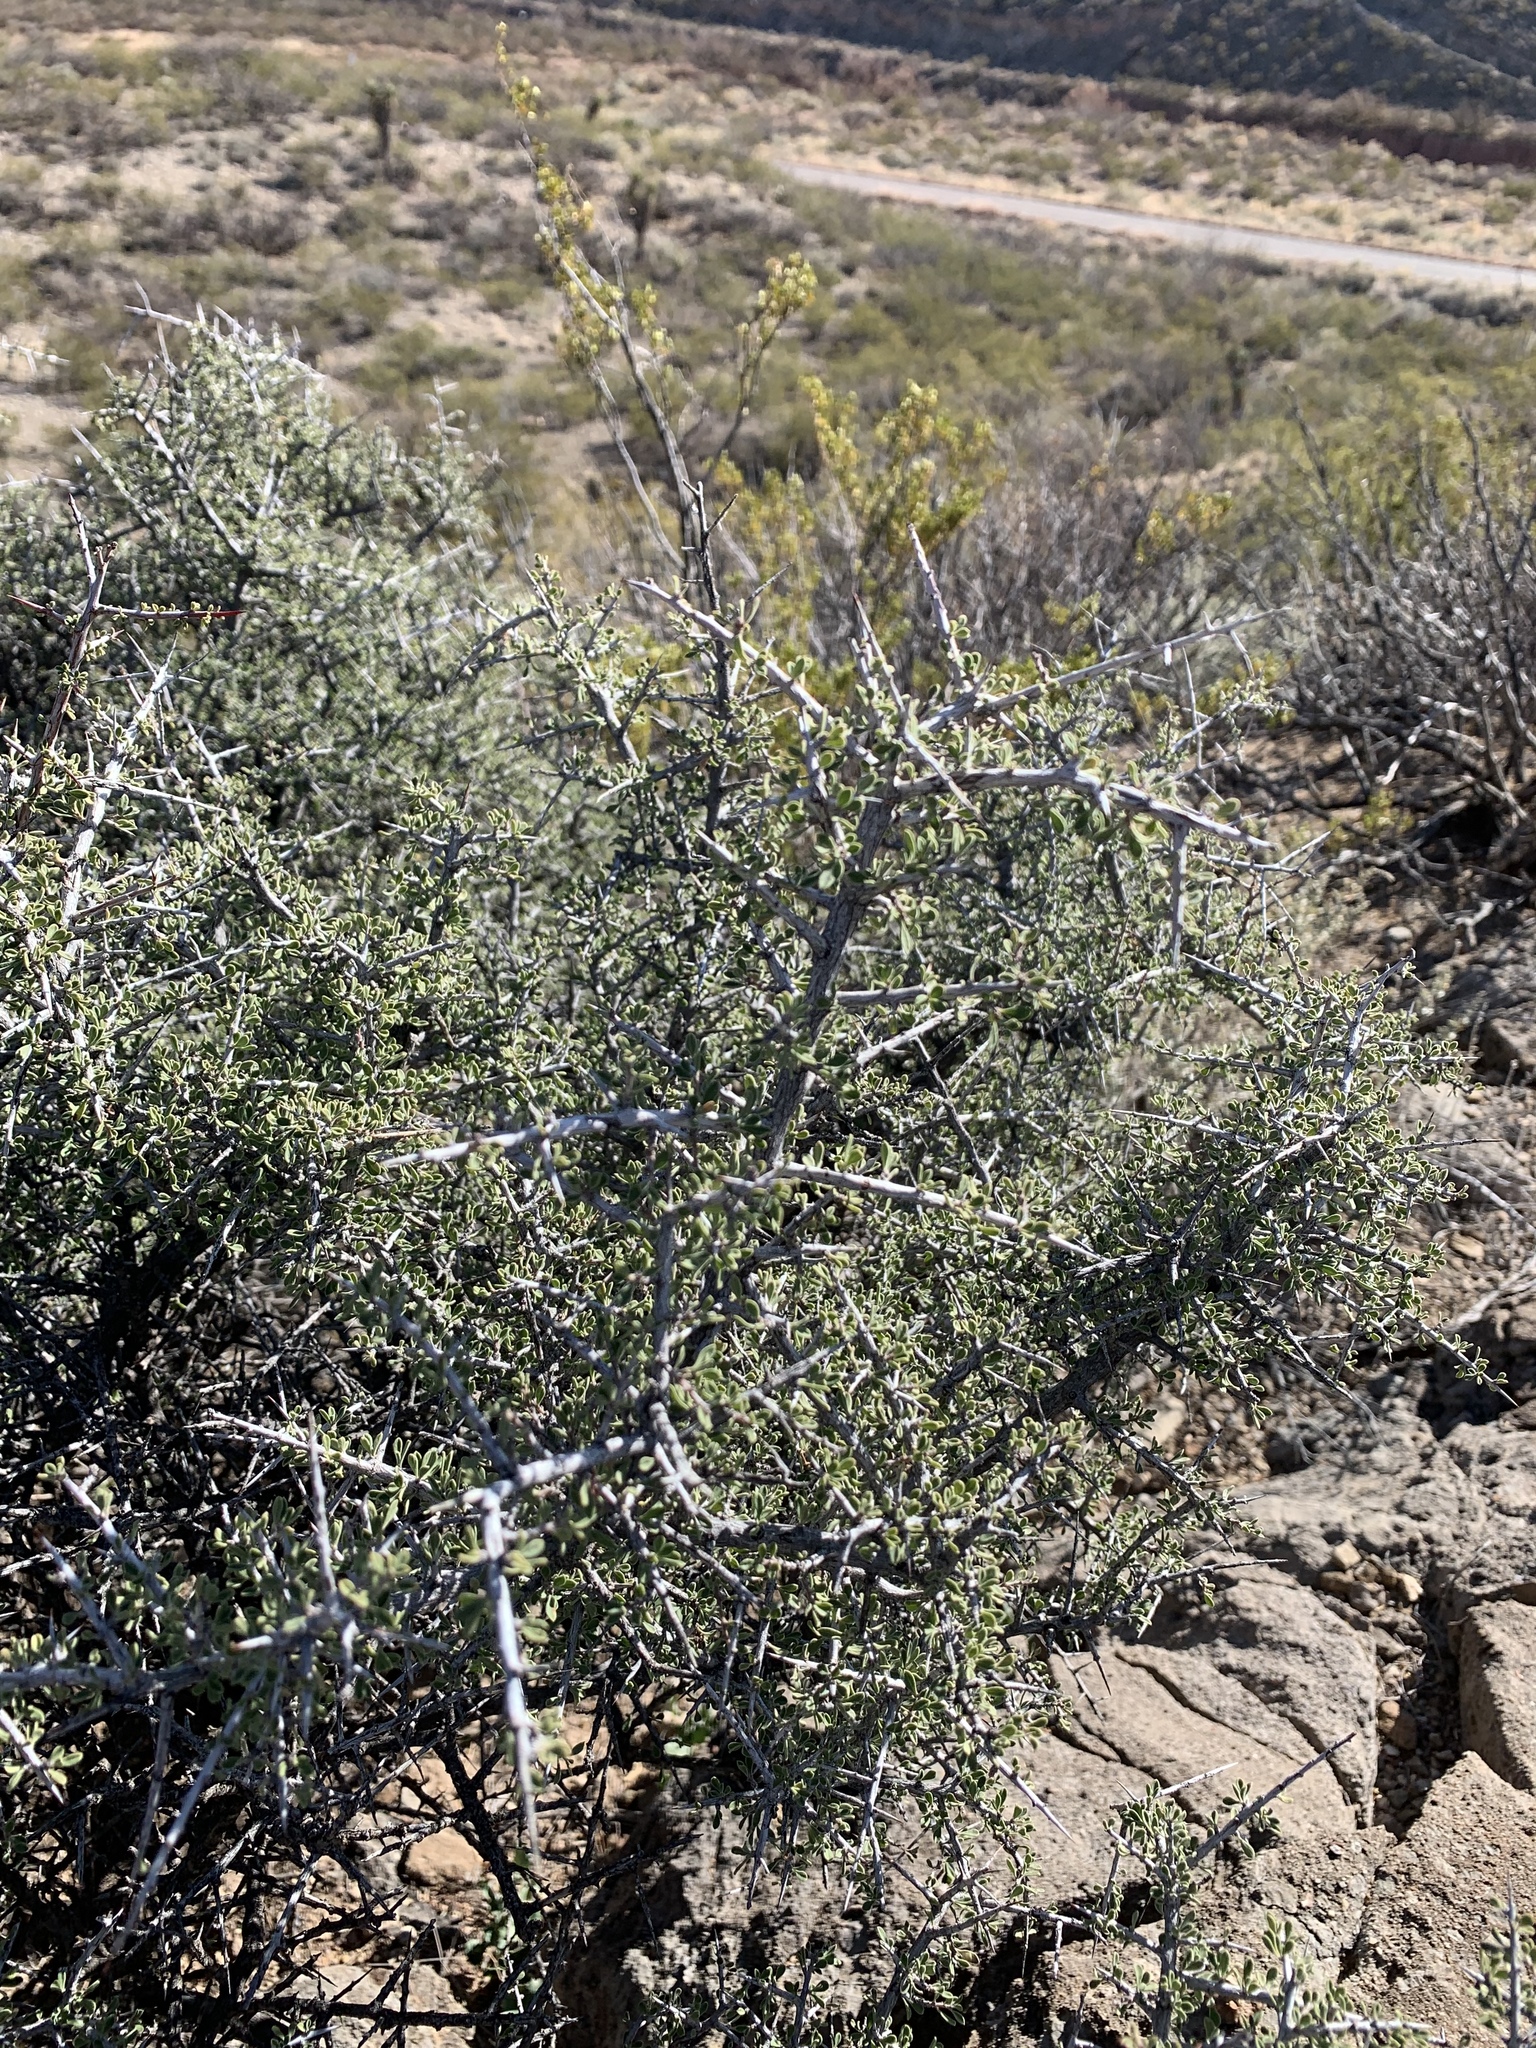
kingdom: Plantae
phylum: Tracheophyta
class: Magnoliopsida
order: Rosales
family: Rhamnaceae
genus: Condalia
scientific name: Condalia warnockii
